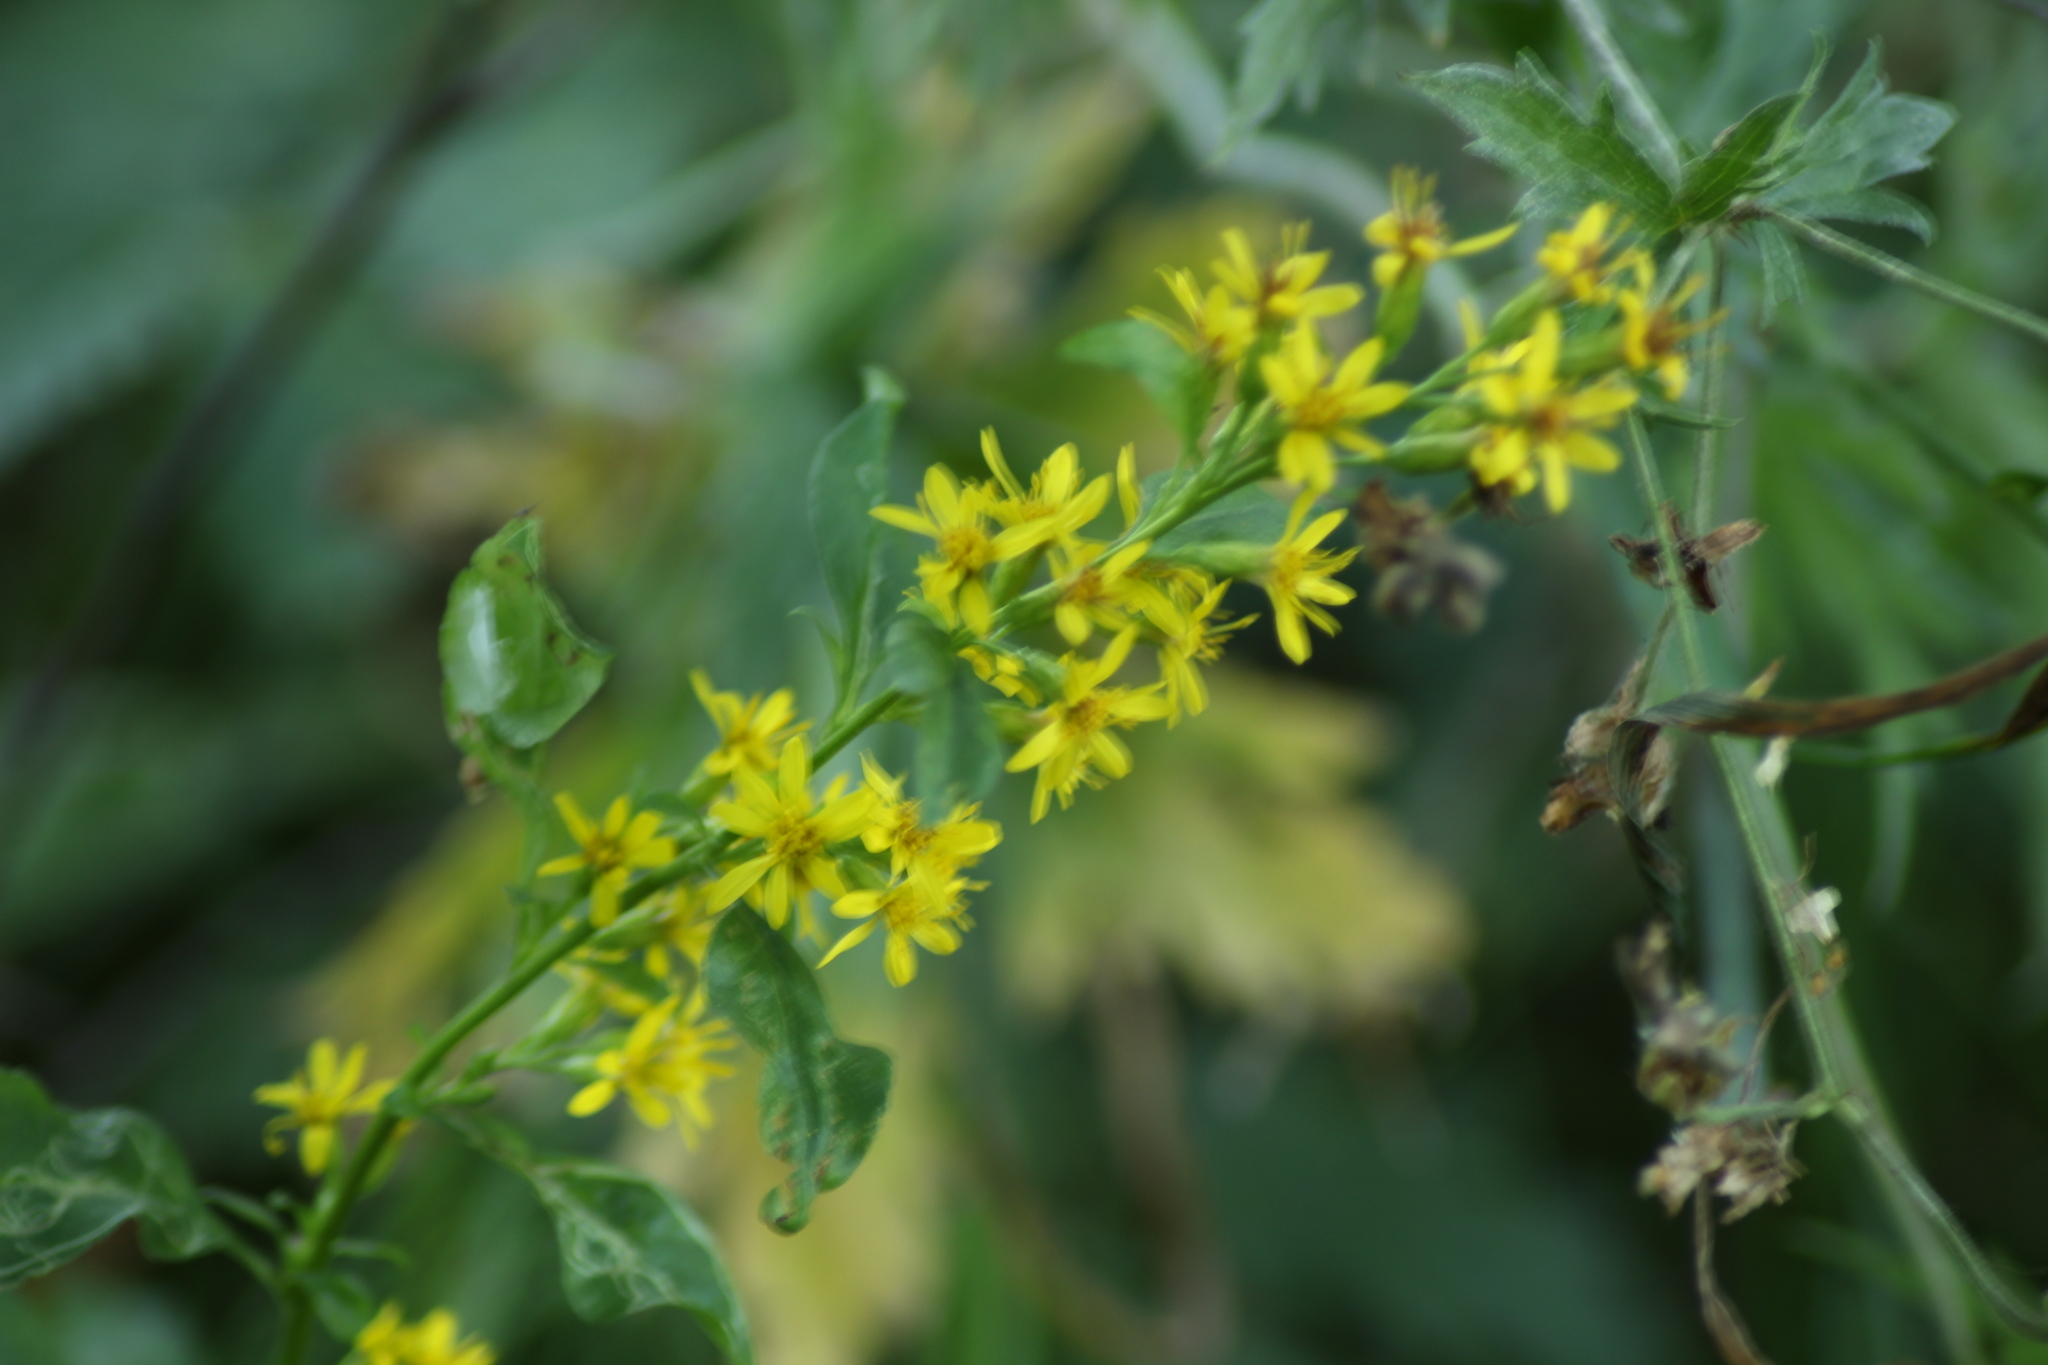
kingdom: Plantae
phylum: Tracheophyta
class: Magnoliopsida
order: Asterales
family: Asteraceae
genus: Solidago
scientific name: Solidago virgaurea
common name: Goldenrod
